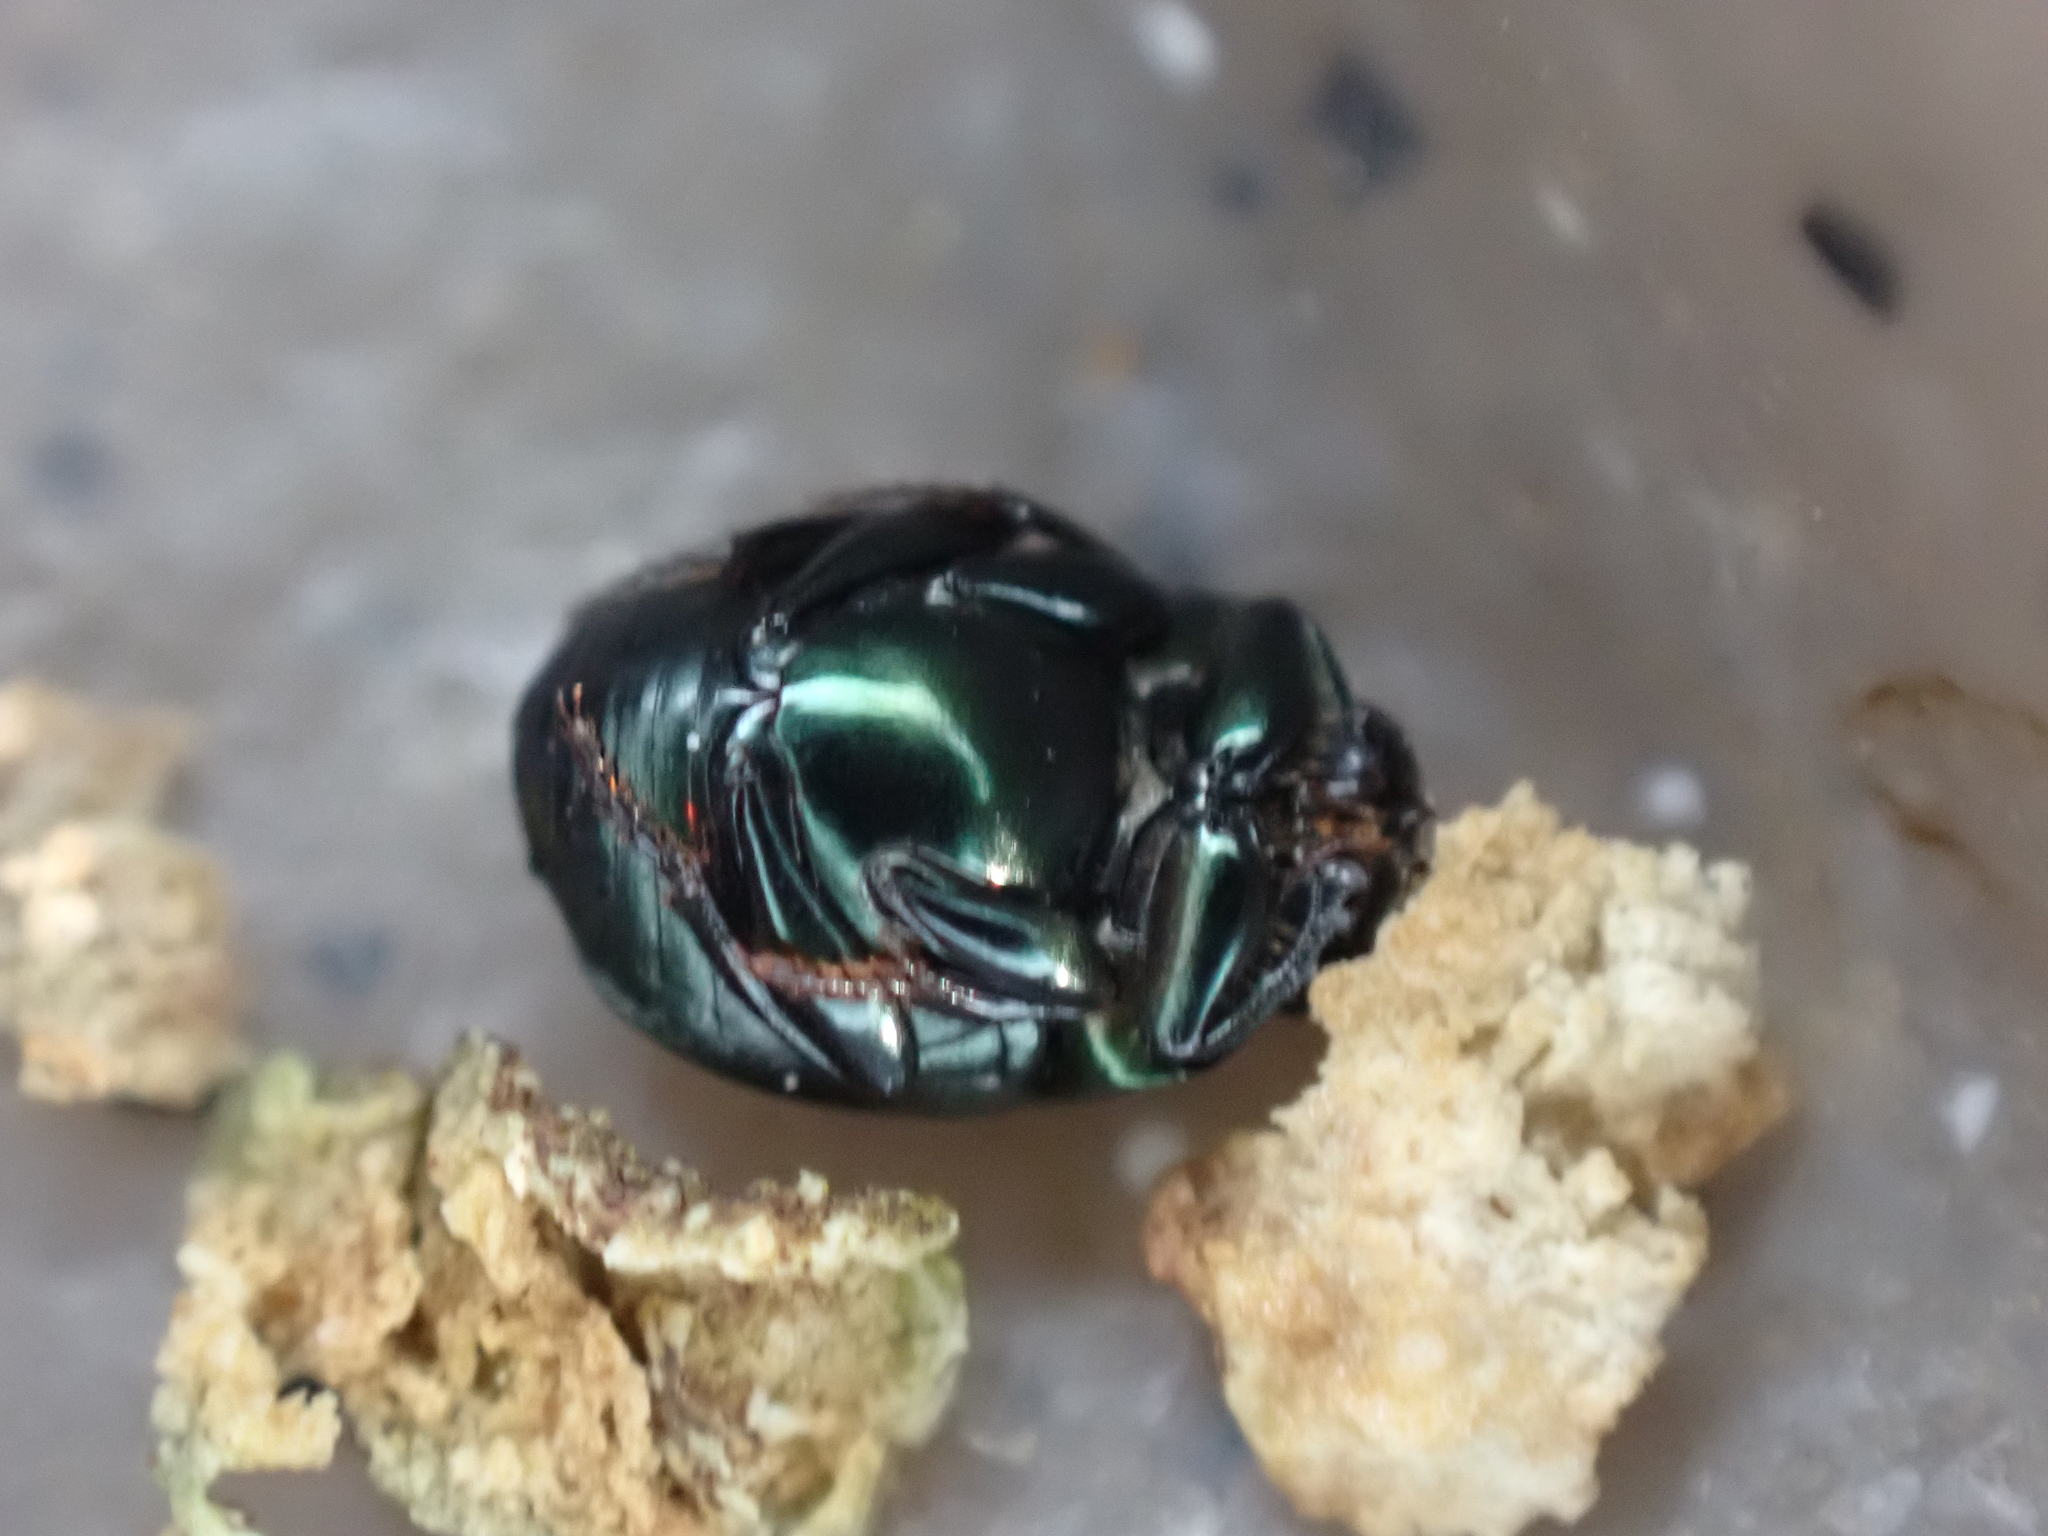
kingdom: Animalia
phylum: Arthropoda
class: Insecta
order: Coleoptera
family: Scarabaeidae
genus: Canthon
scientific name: Canthon viridis
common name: Tumblebug
